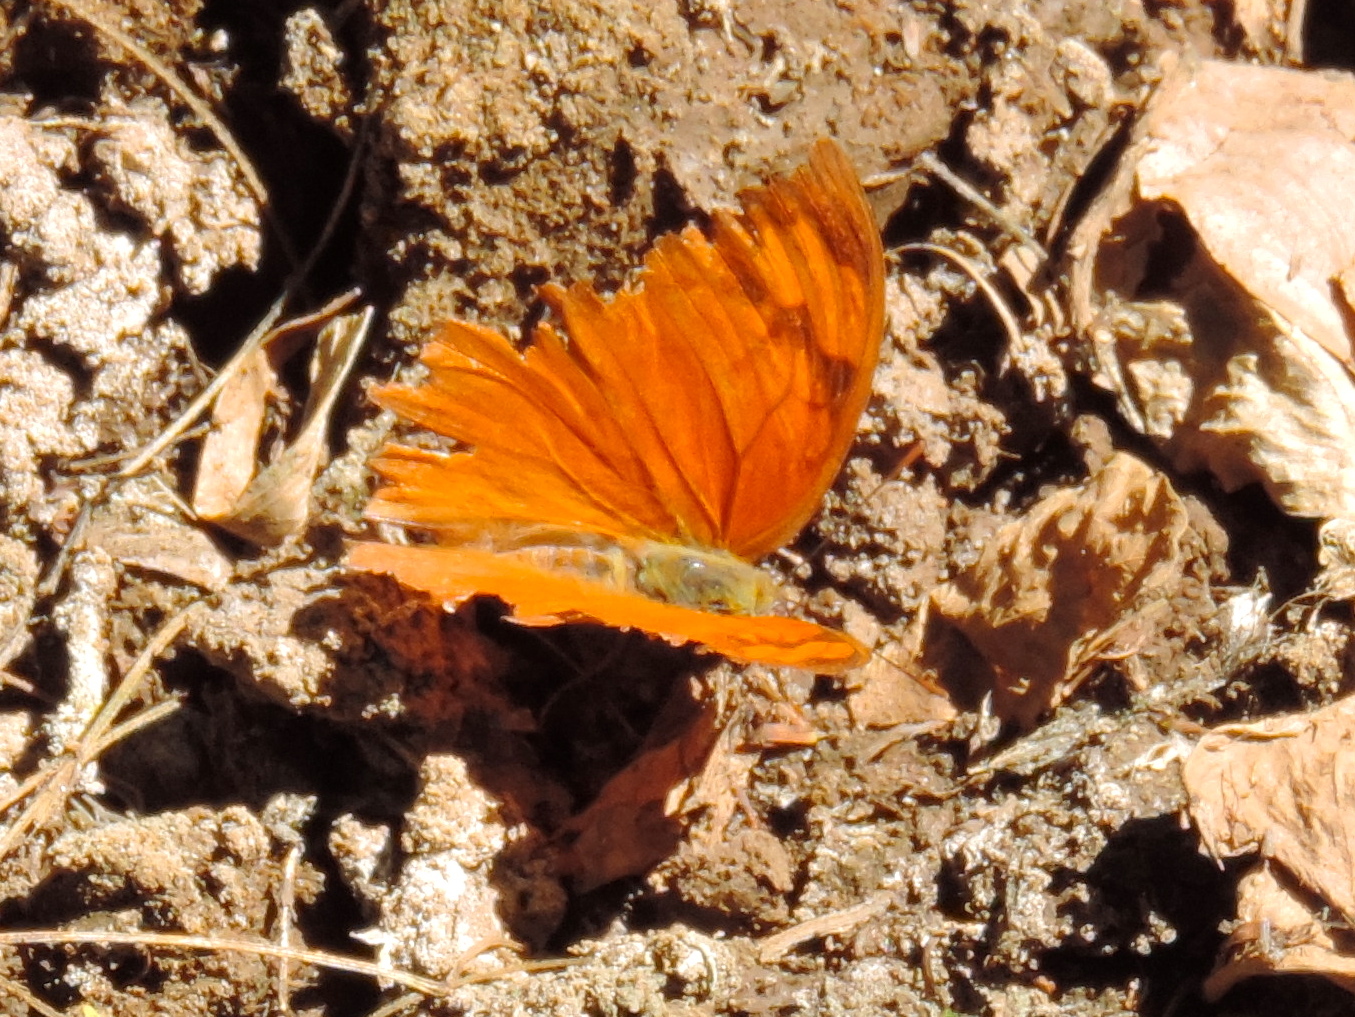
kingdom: Animalia
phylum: Arthropoda
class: Insecta
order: Lepidoptera
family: Nymphalidae
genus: Fountainea
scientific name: Fountainea
